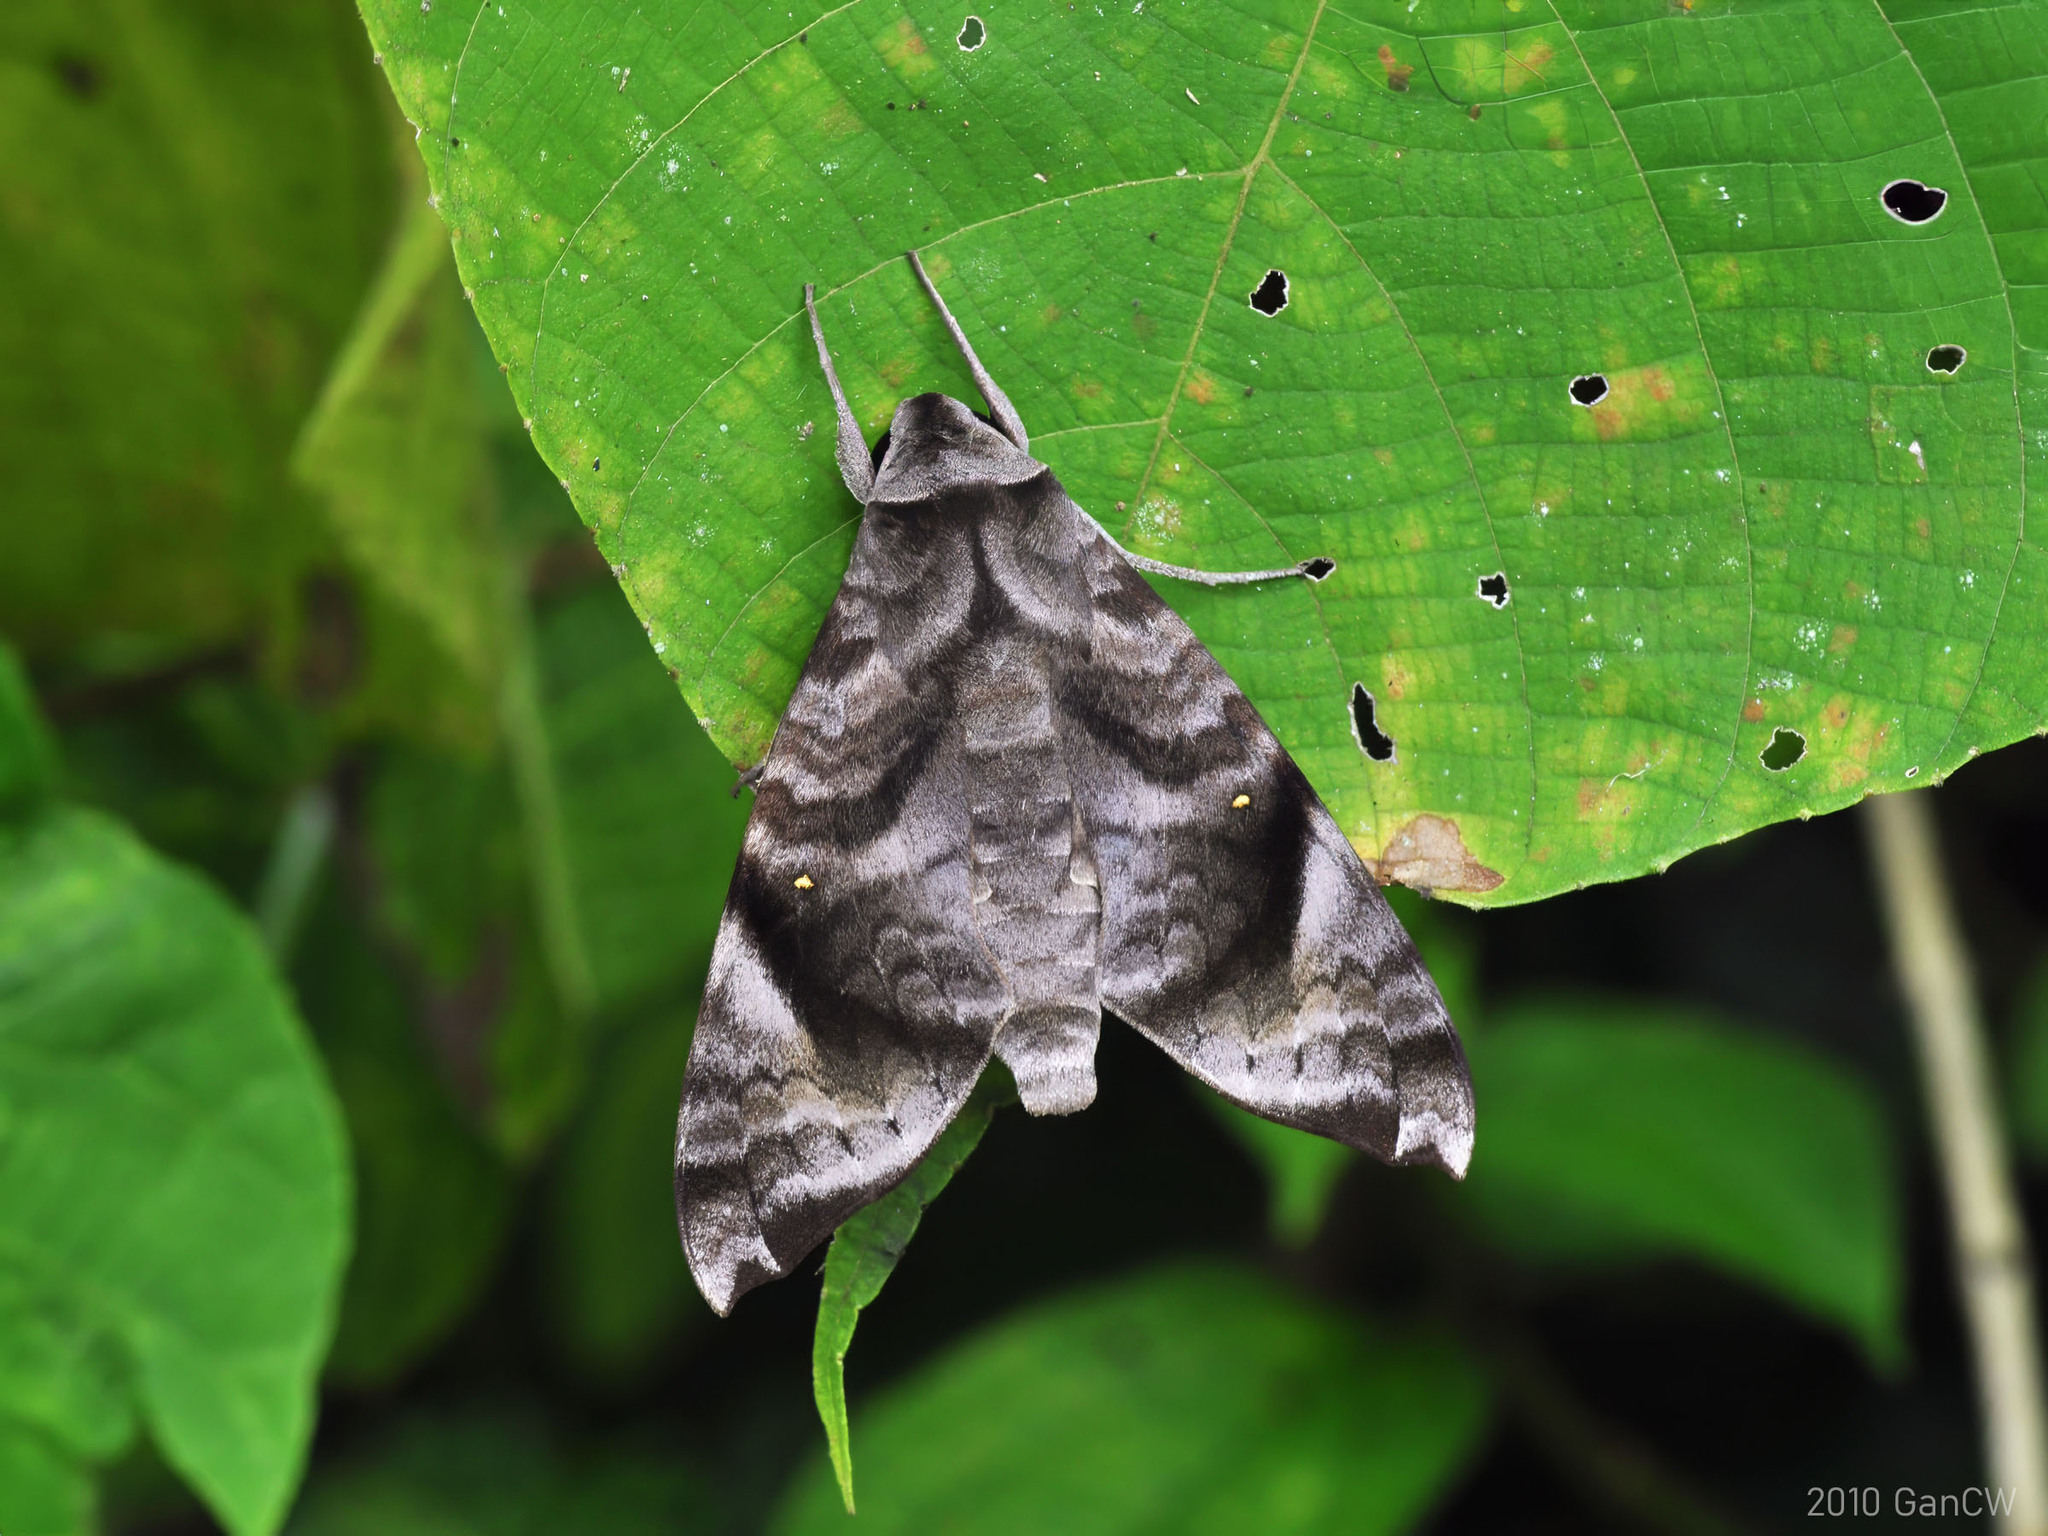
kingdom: Animalia
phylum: Arthropoda
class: Insecta
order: Lepidoptera
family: Sphingidae
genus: Acosmeryx
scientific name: Acosmeryx pseudonaga
